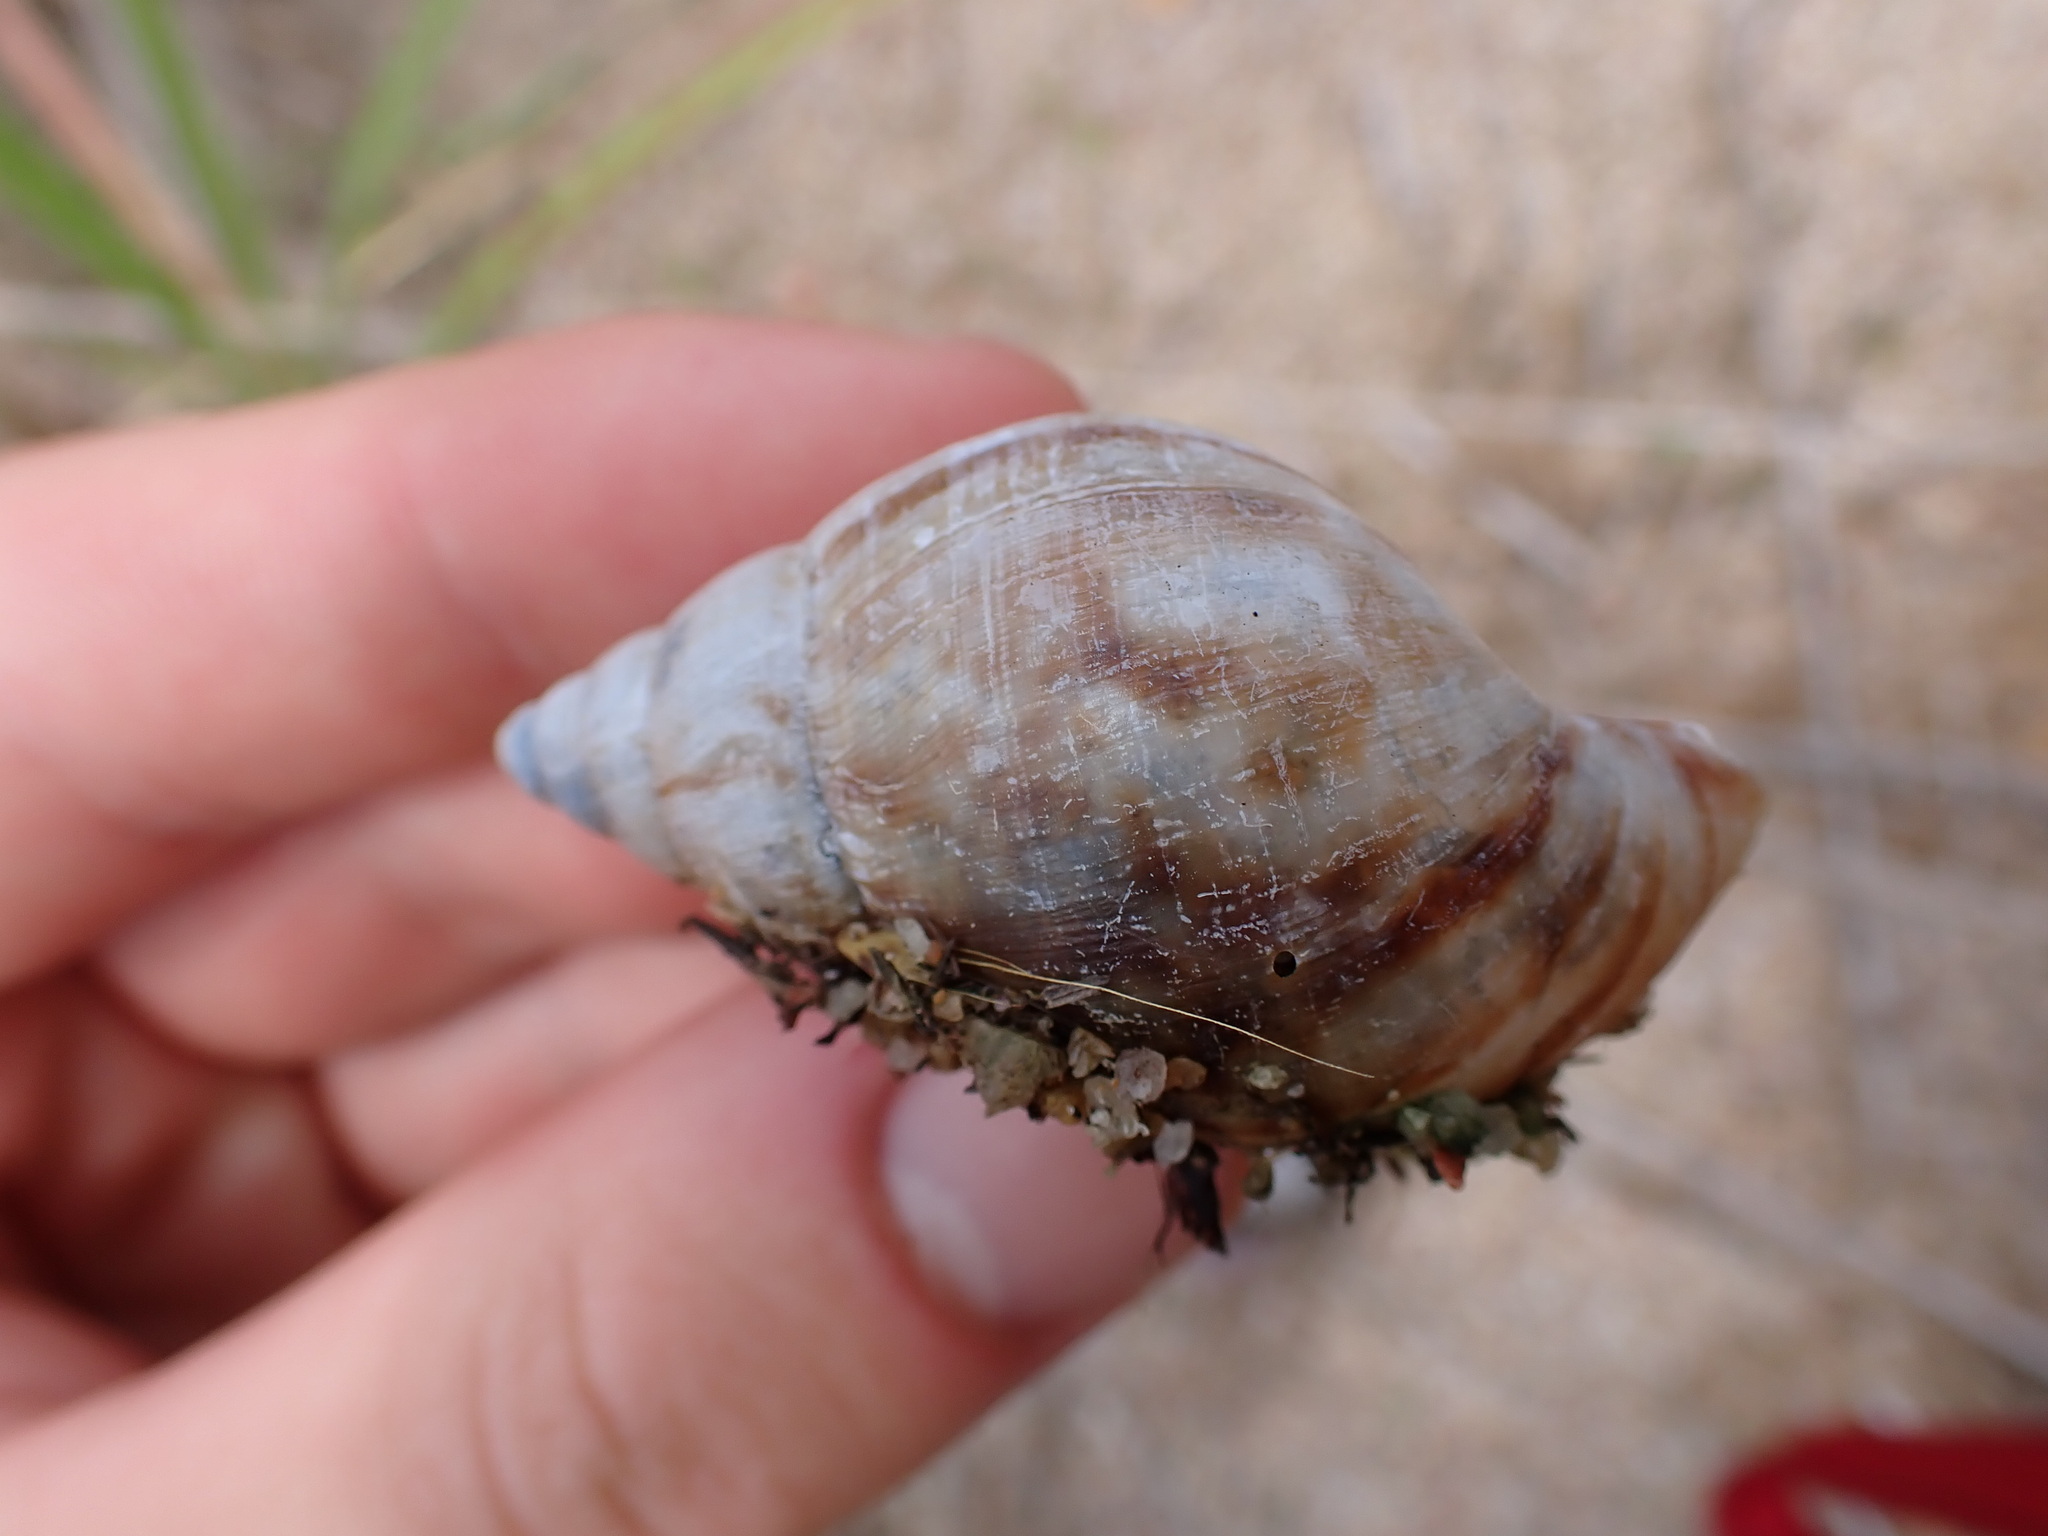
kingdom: Animalia
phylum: Mollusca
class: Gastropoda
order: Stylommatophora
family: Achatinidae
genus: Lissachatina
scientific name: Lissachatina fulica
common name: Giant african snail
